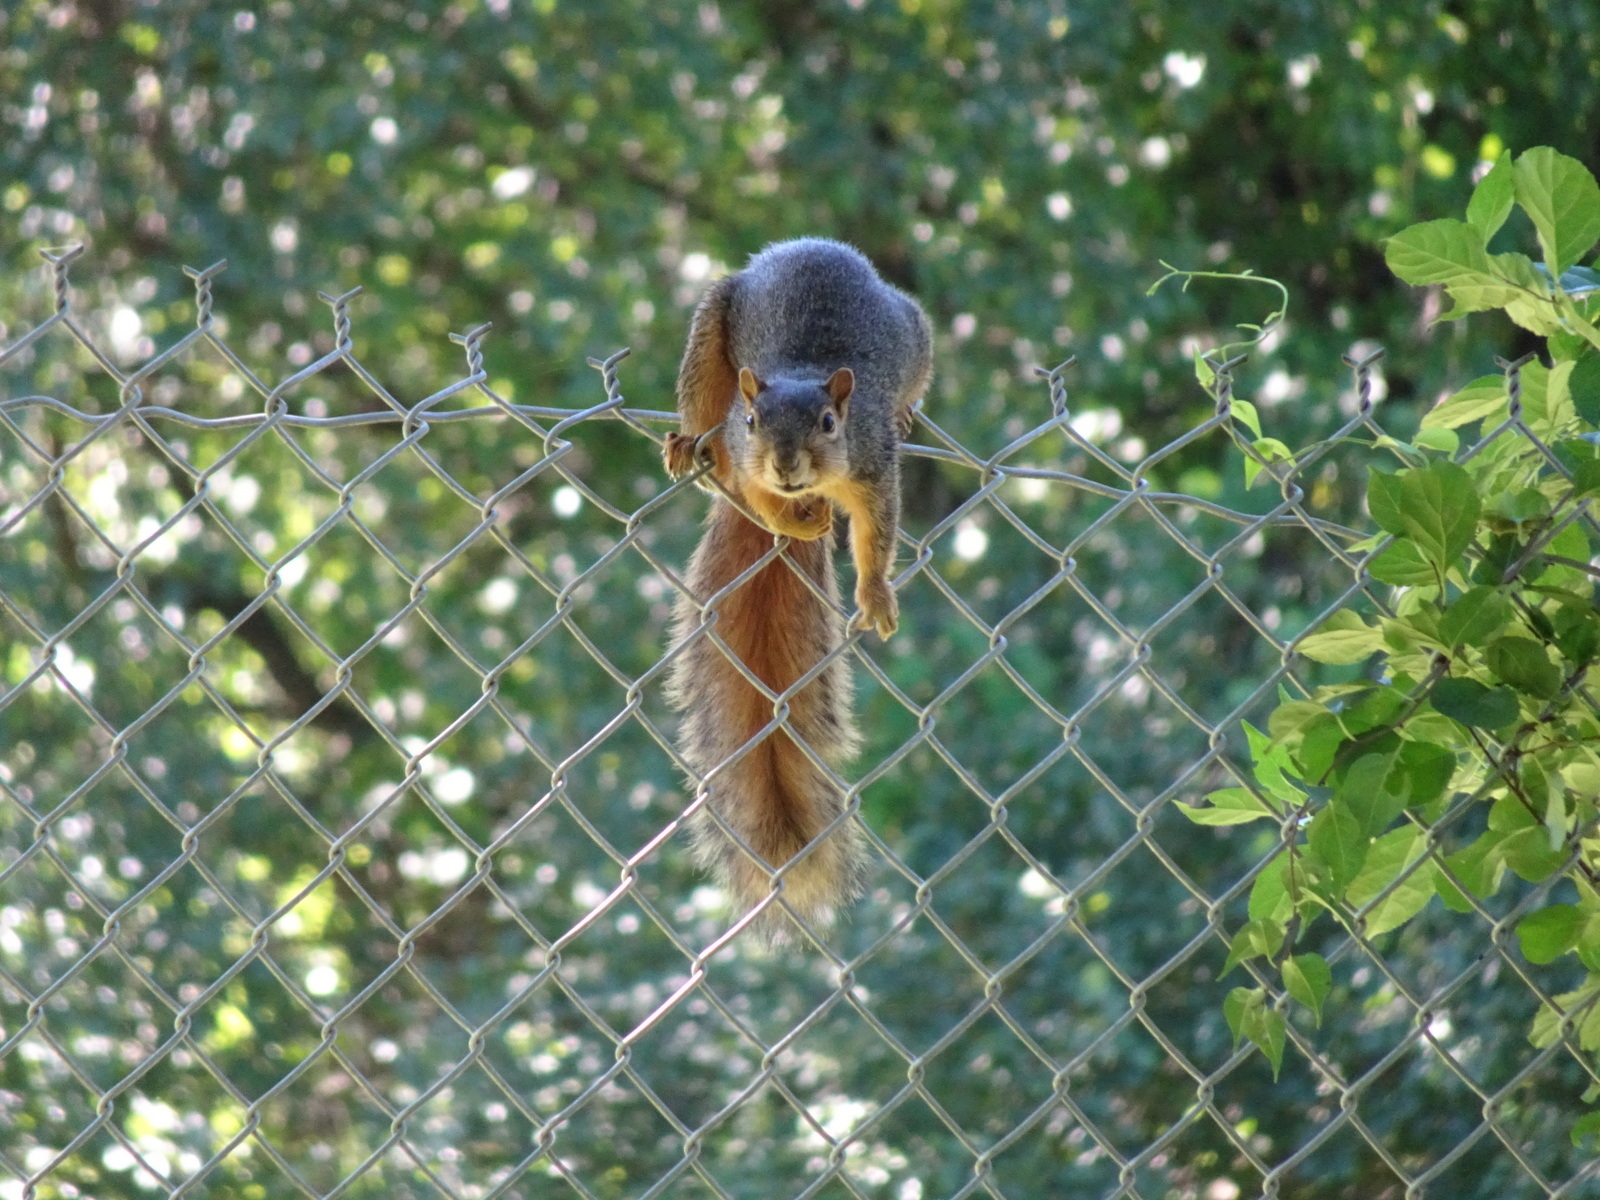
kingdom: Animalia
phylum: Chordata
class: Mammalia
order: Rodentia
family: Sciuridae
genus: Sciurus
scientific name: Sciurus niger
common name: Fox squirrel
